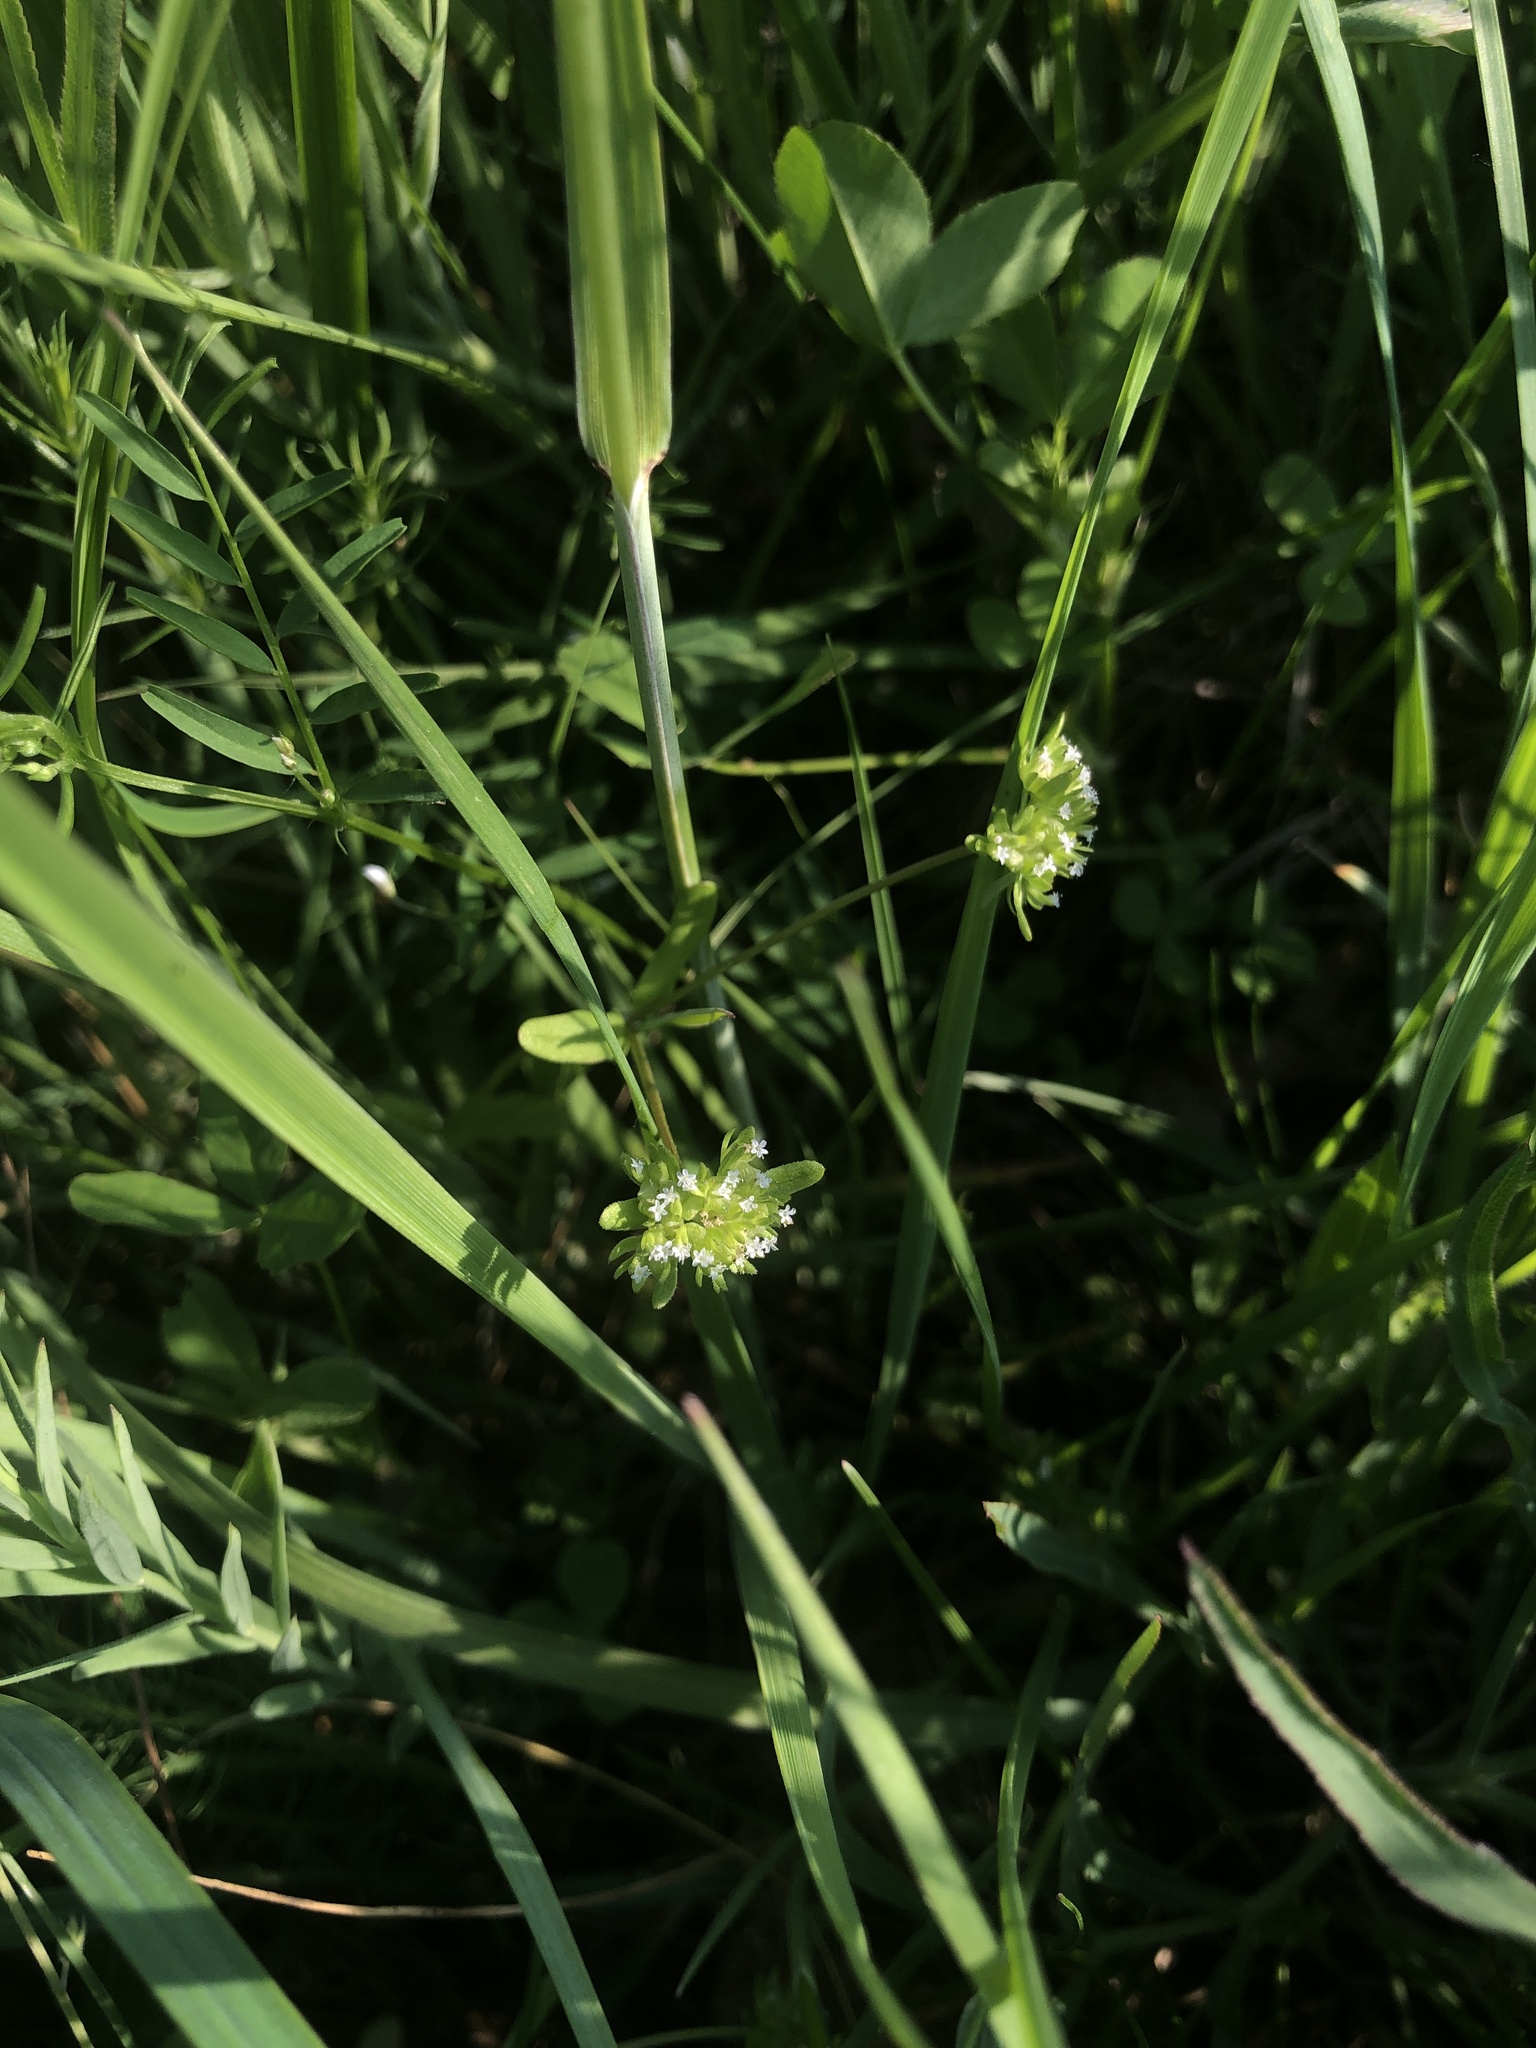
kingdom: Plantae
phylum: Tracheophyta
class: Magnoliopsida
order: Dipsacales
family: Caprifoliaceae
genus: Valerianella
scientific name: Valerianella locusta
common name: Common cornsalad
